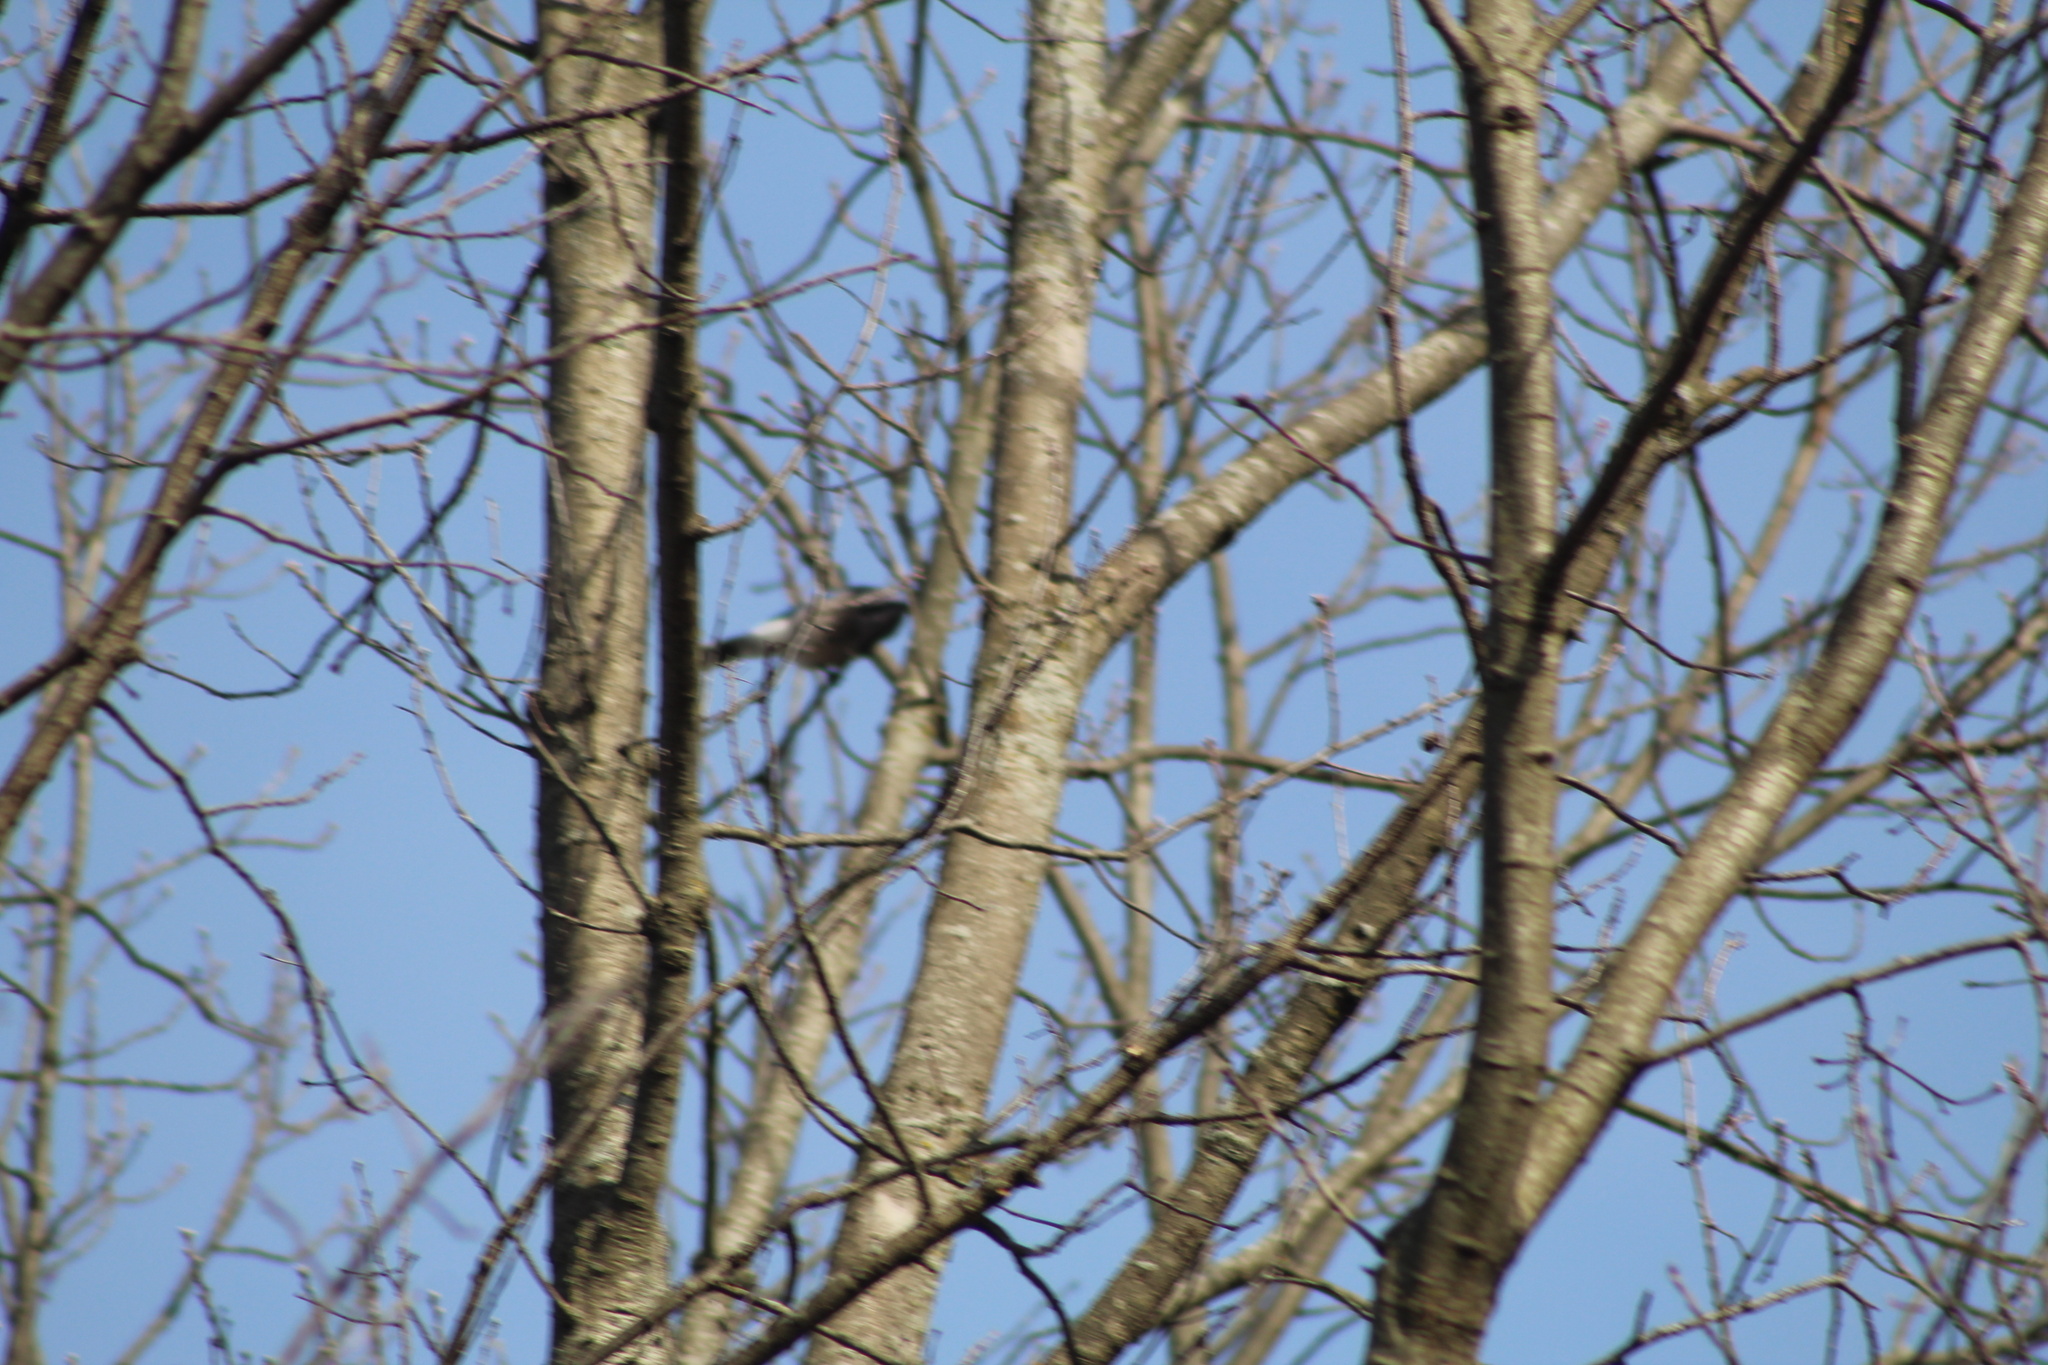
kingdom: Animalia
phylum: Chordata
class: Aves
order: Passeriformes
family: Corvidae
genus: Cyanocitta
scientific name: Cyanocitta cristata
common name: Blue jay
